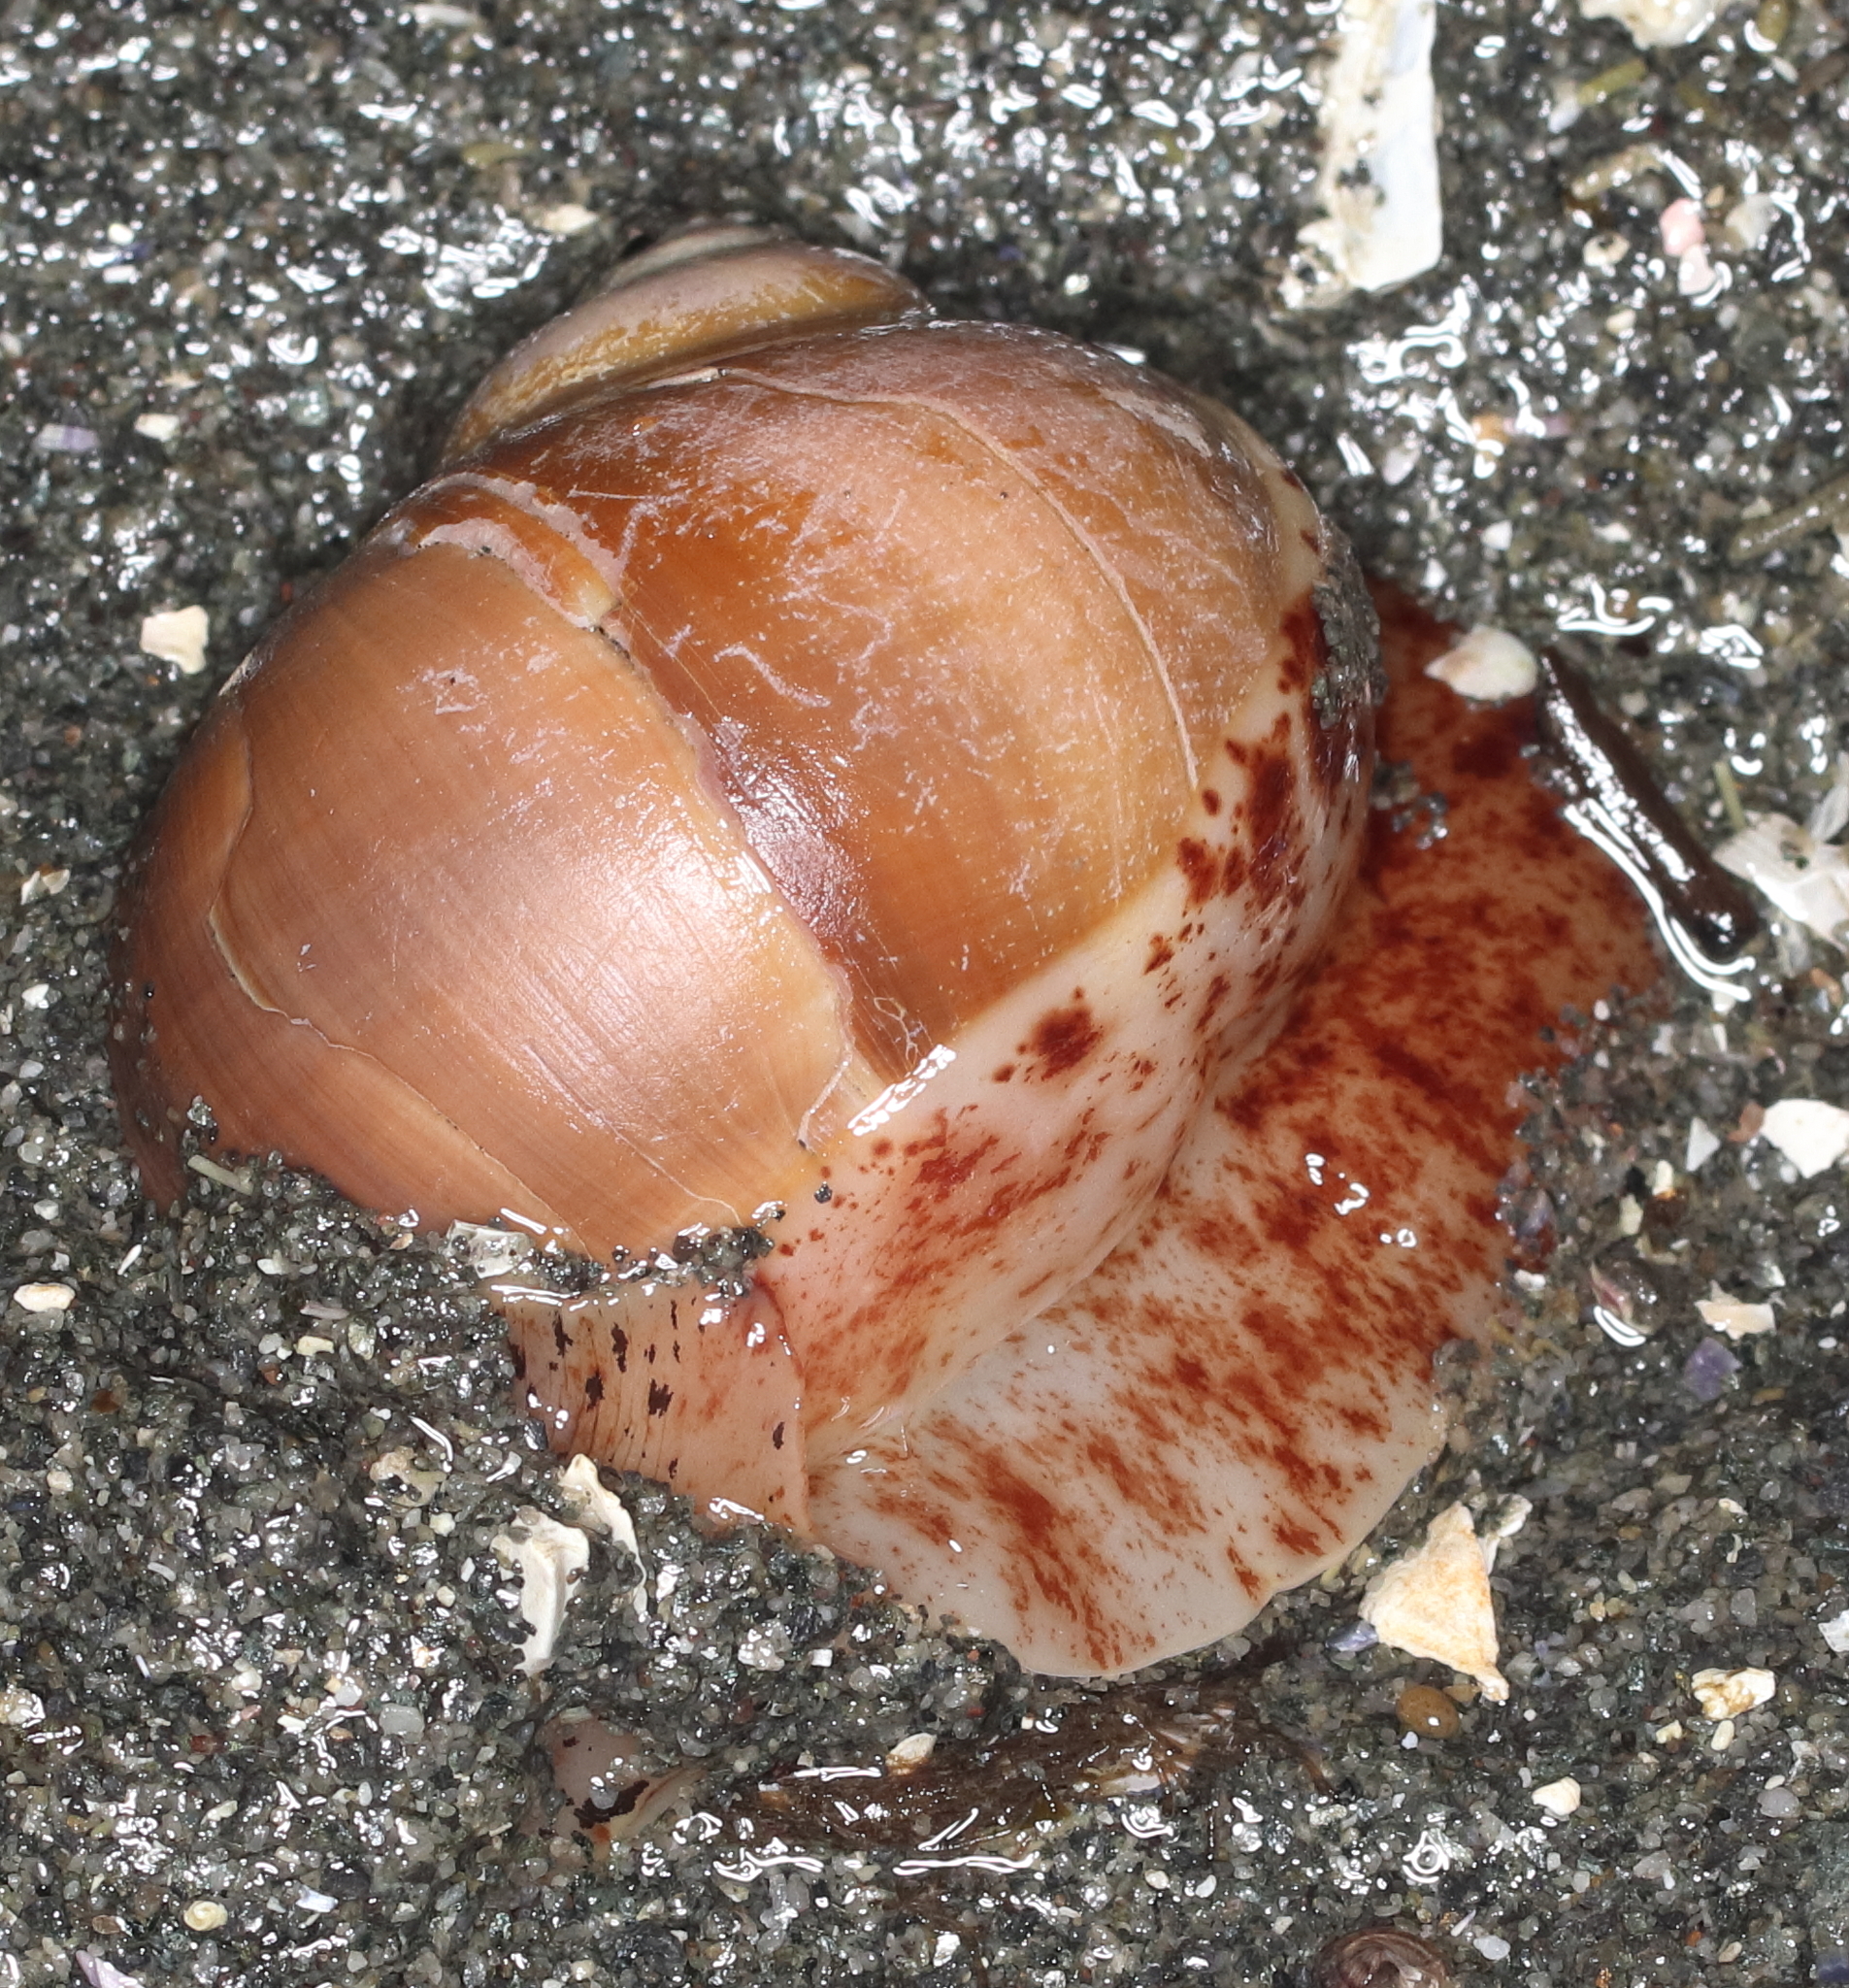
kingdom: Animalia
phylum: Mollusca
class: Gastropoda
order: Littorinimorpha
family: Naticidae
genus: Cryptonatica
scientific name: Cryptonatica aleutica
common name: Aleutian moon snail
